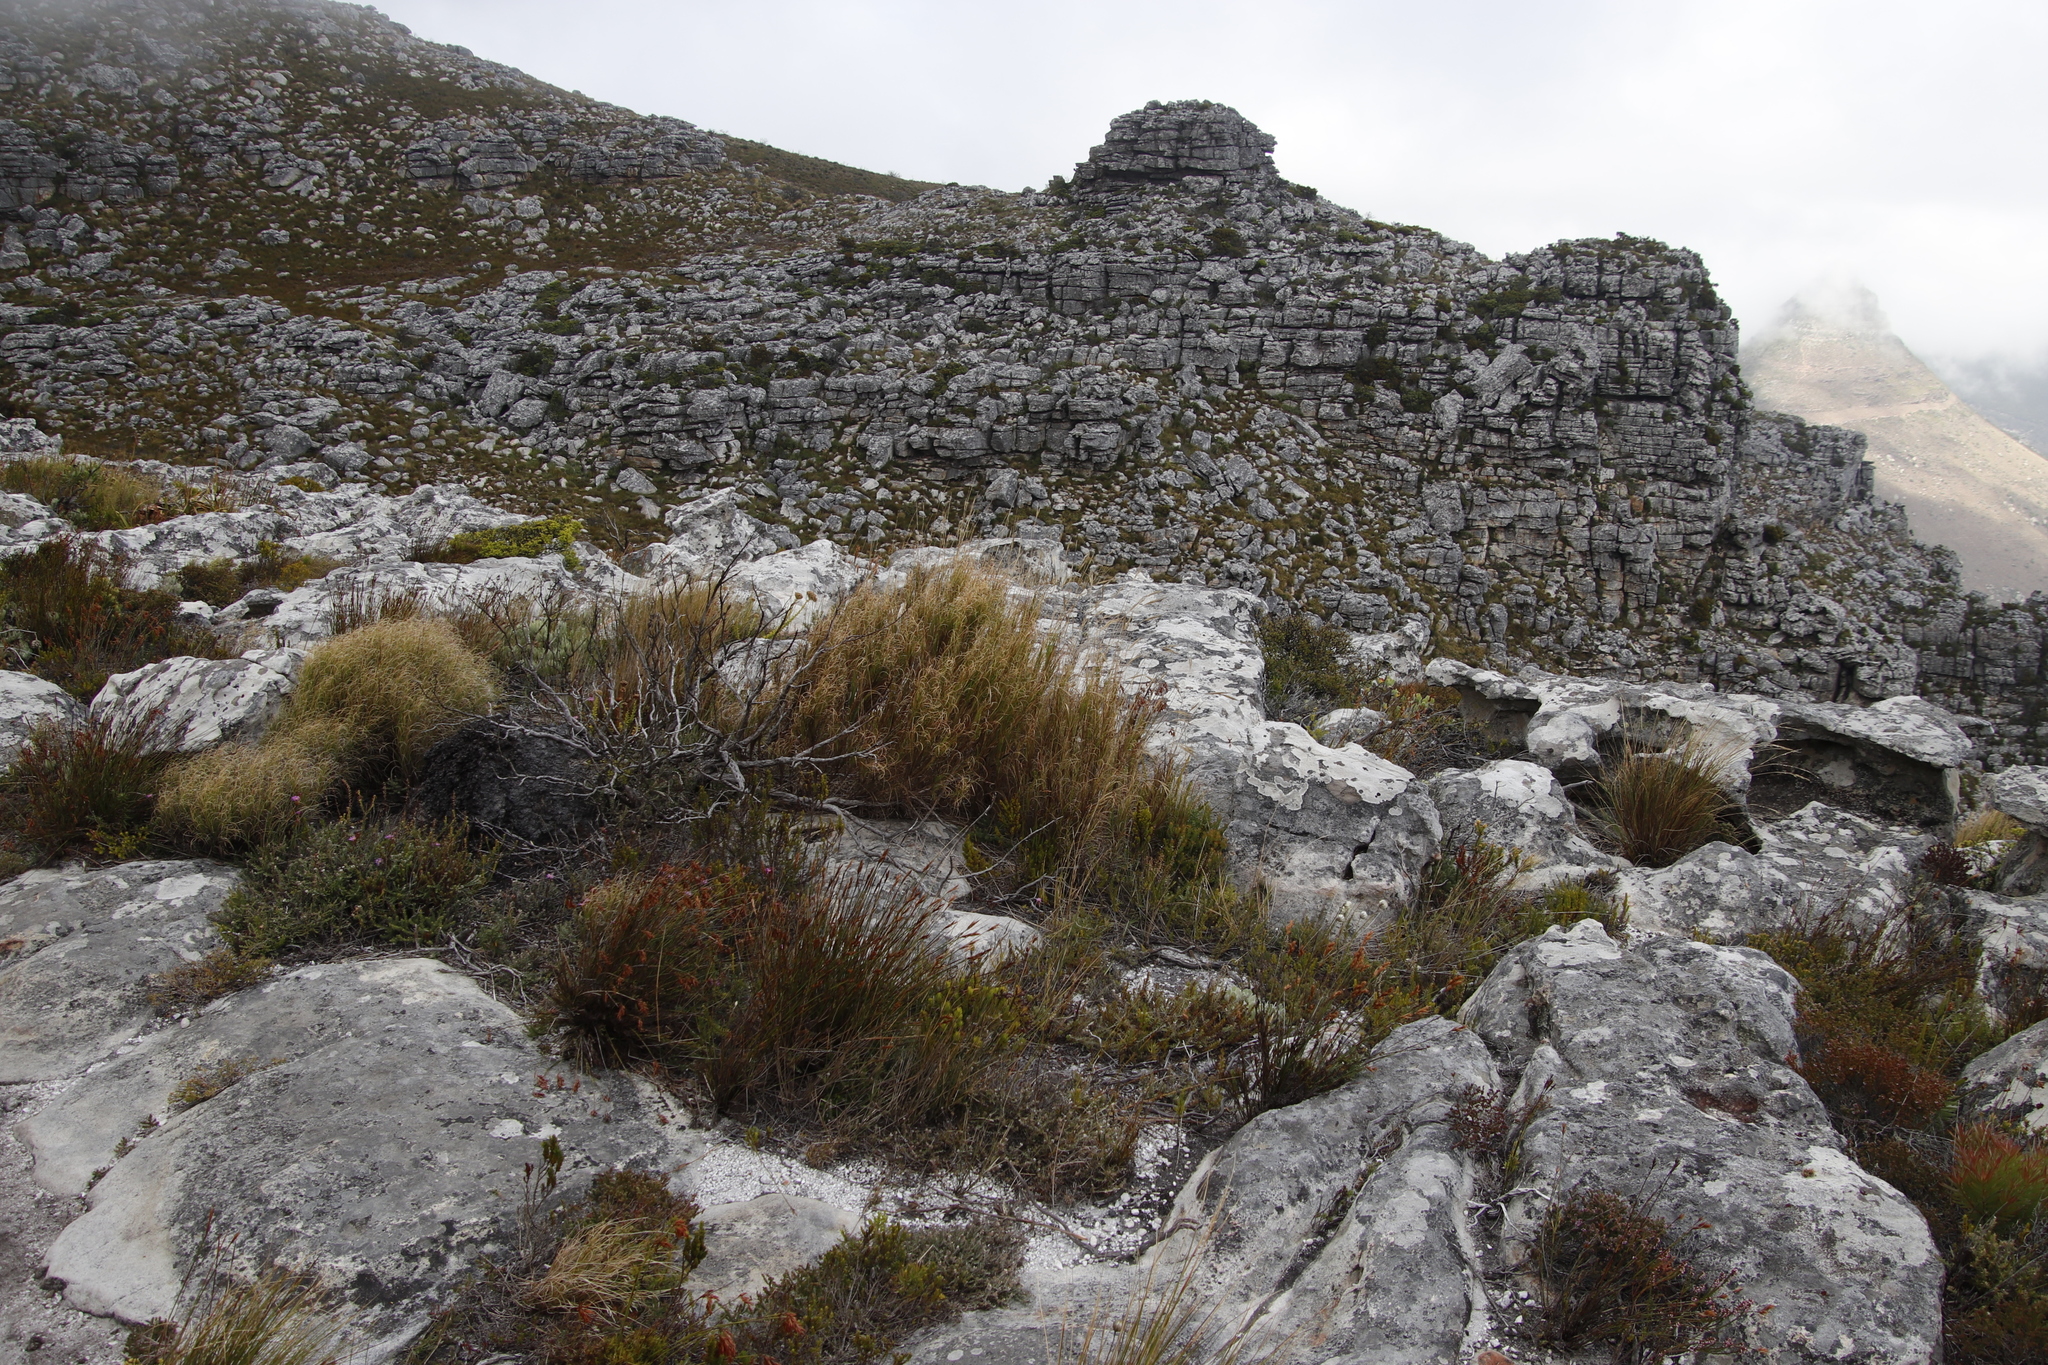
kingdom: Plantae
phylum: Tracheophyta
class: Liliopsida
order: Poales
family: Poaceae
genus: Pseudopentameris
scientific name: Pseudopentameris macrantha
